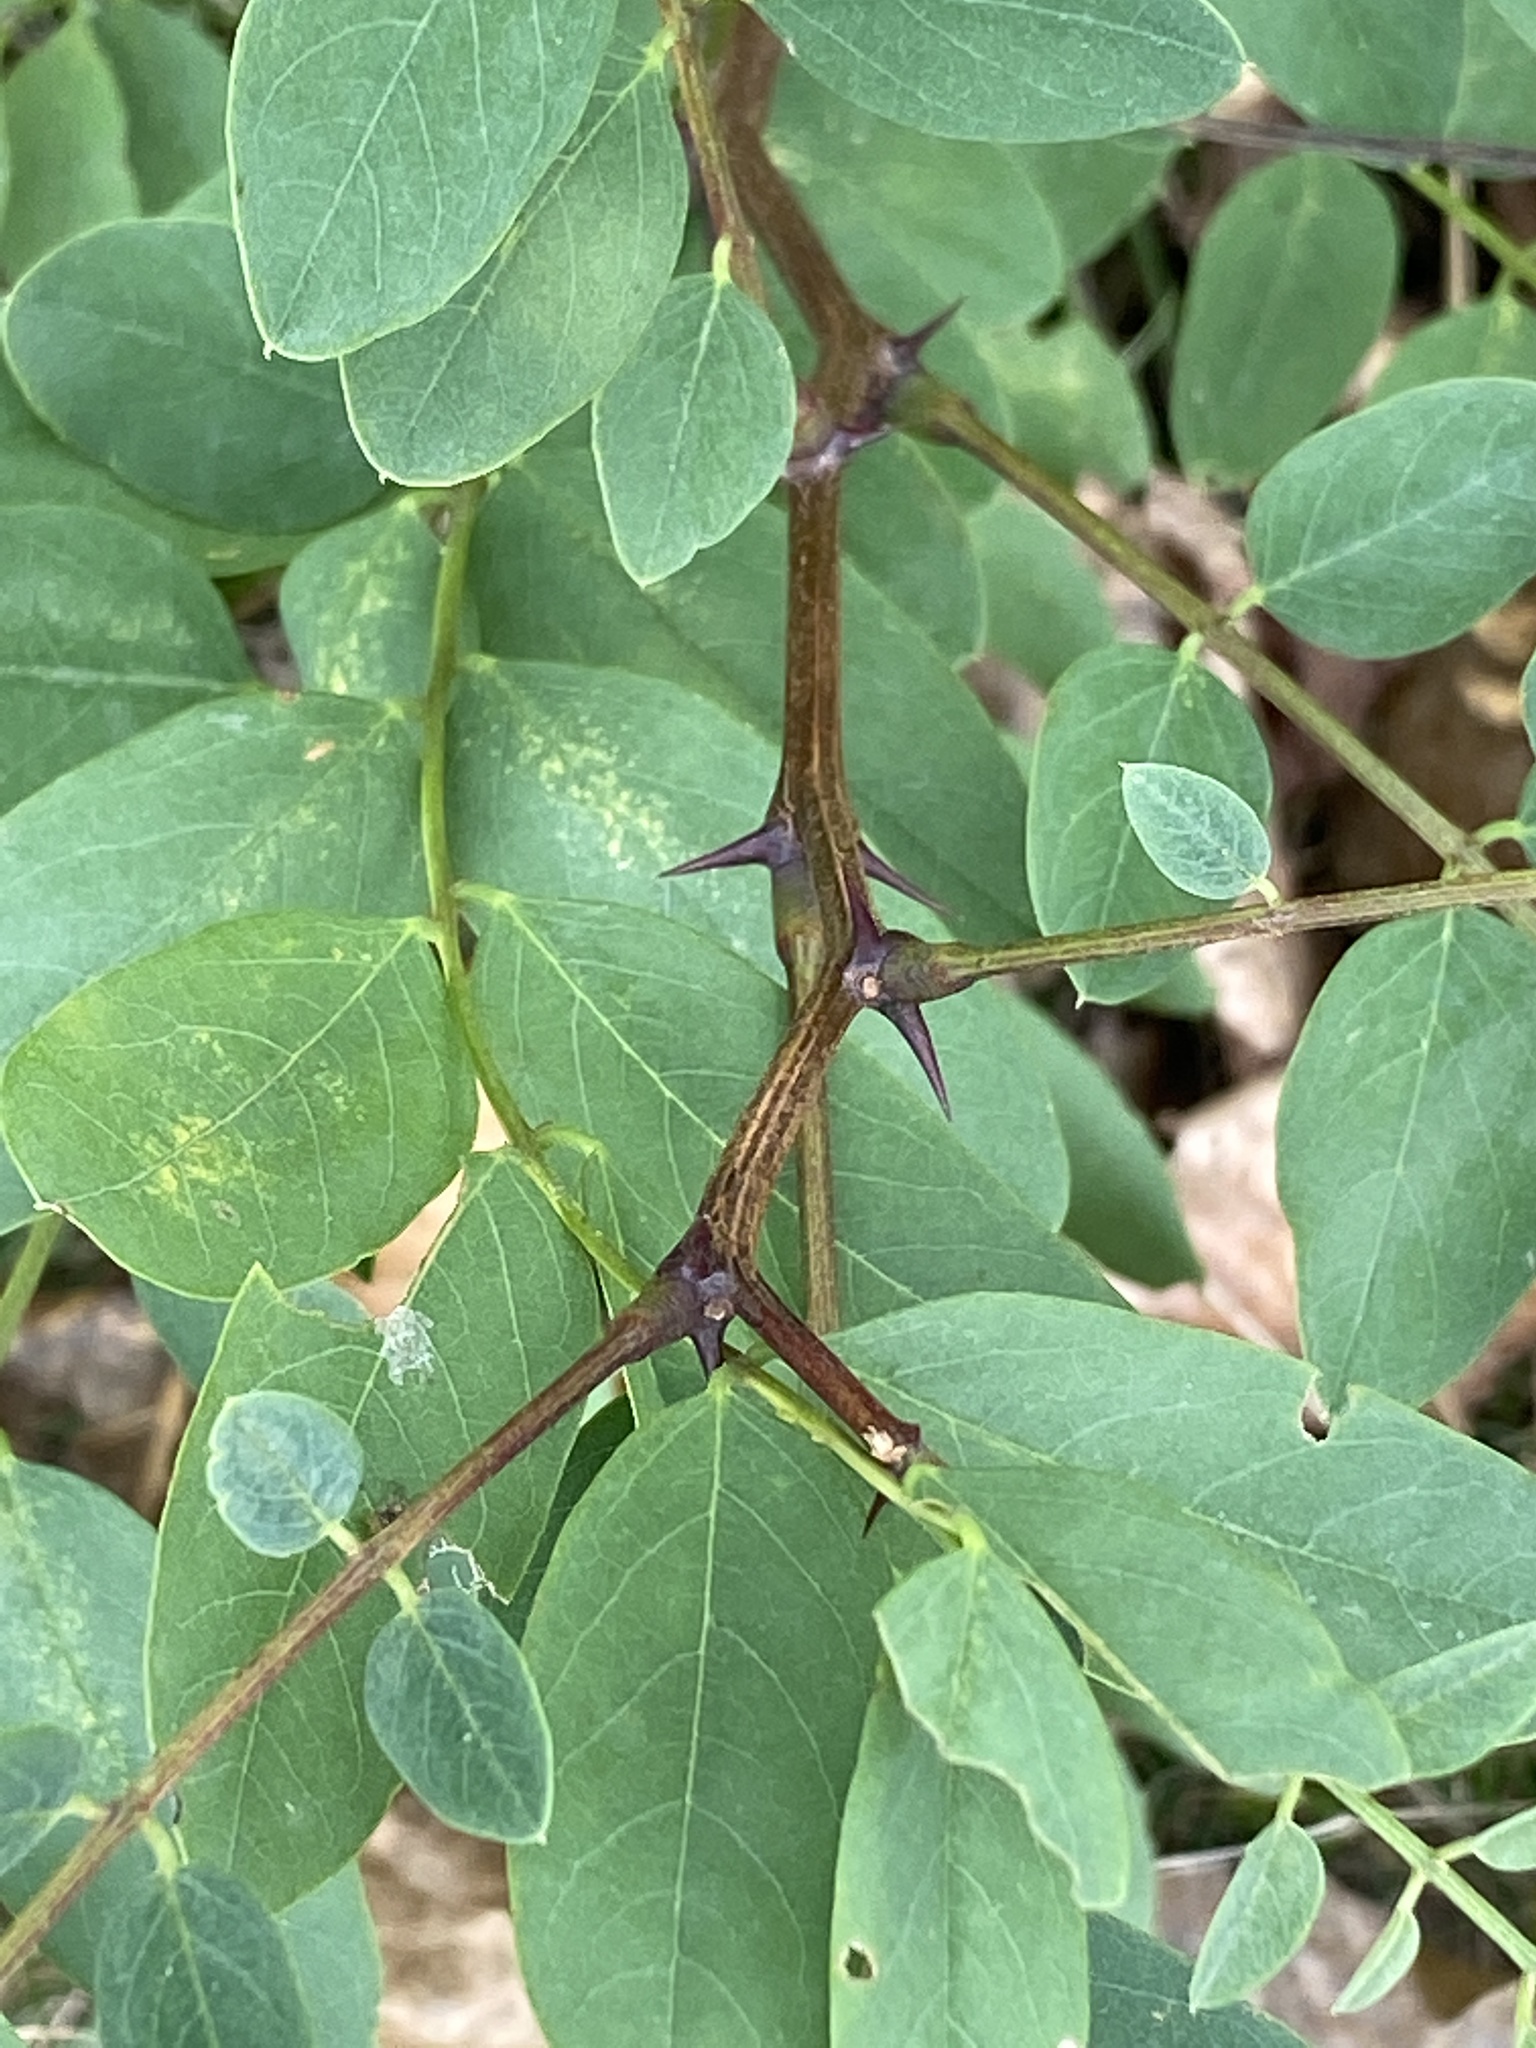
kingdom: Plantae
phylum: Tracheophyta
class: Magnoliopsida
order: Fabales
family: Fabaceae
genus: Robinia
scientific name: Robinia pseudoacacia
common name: Black locust
